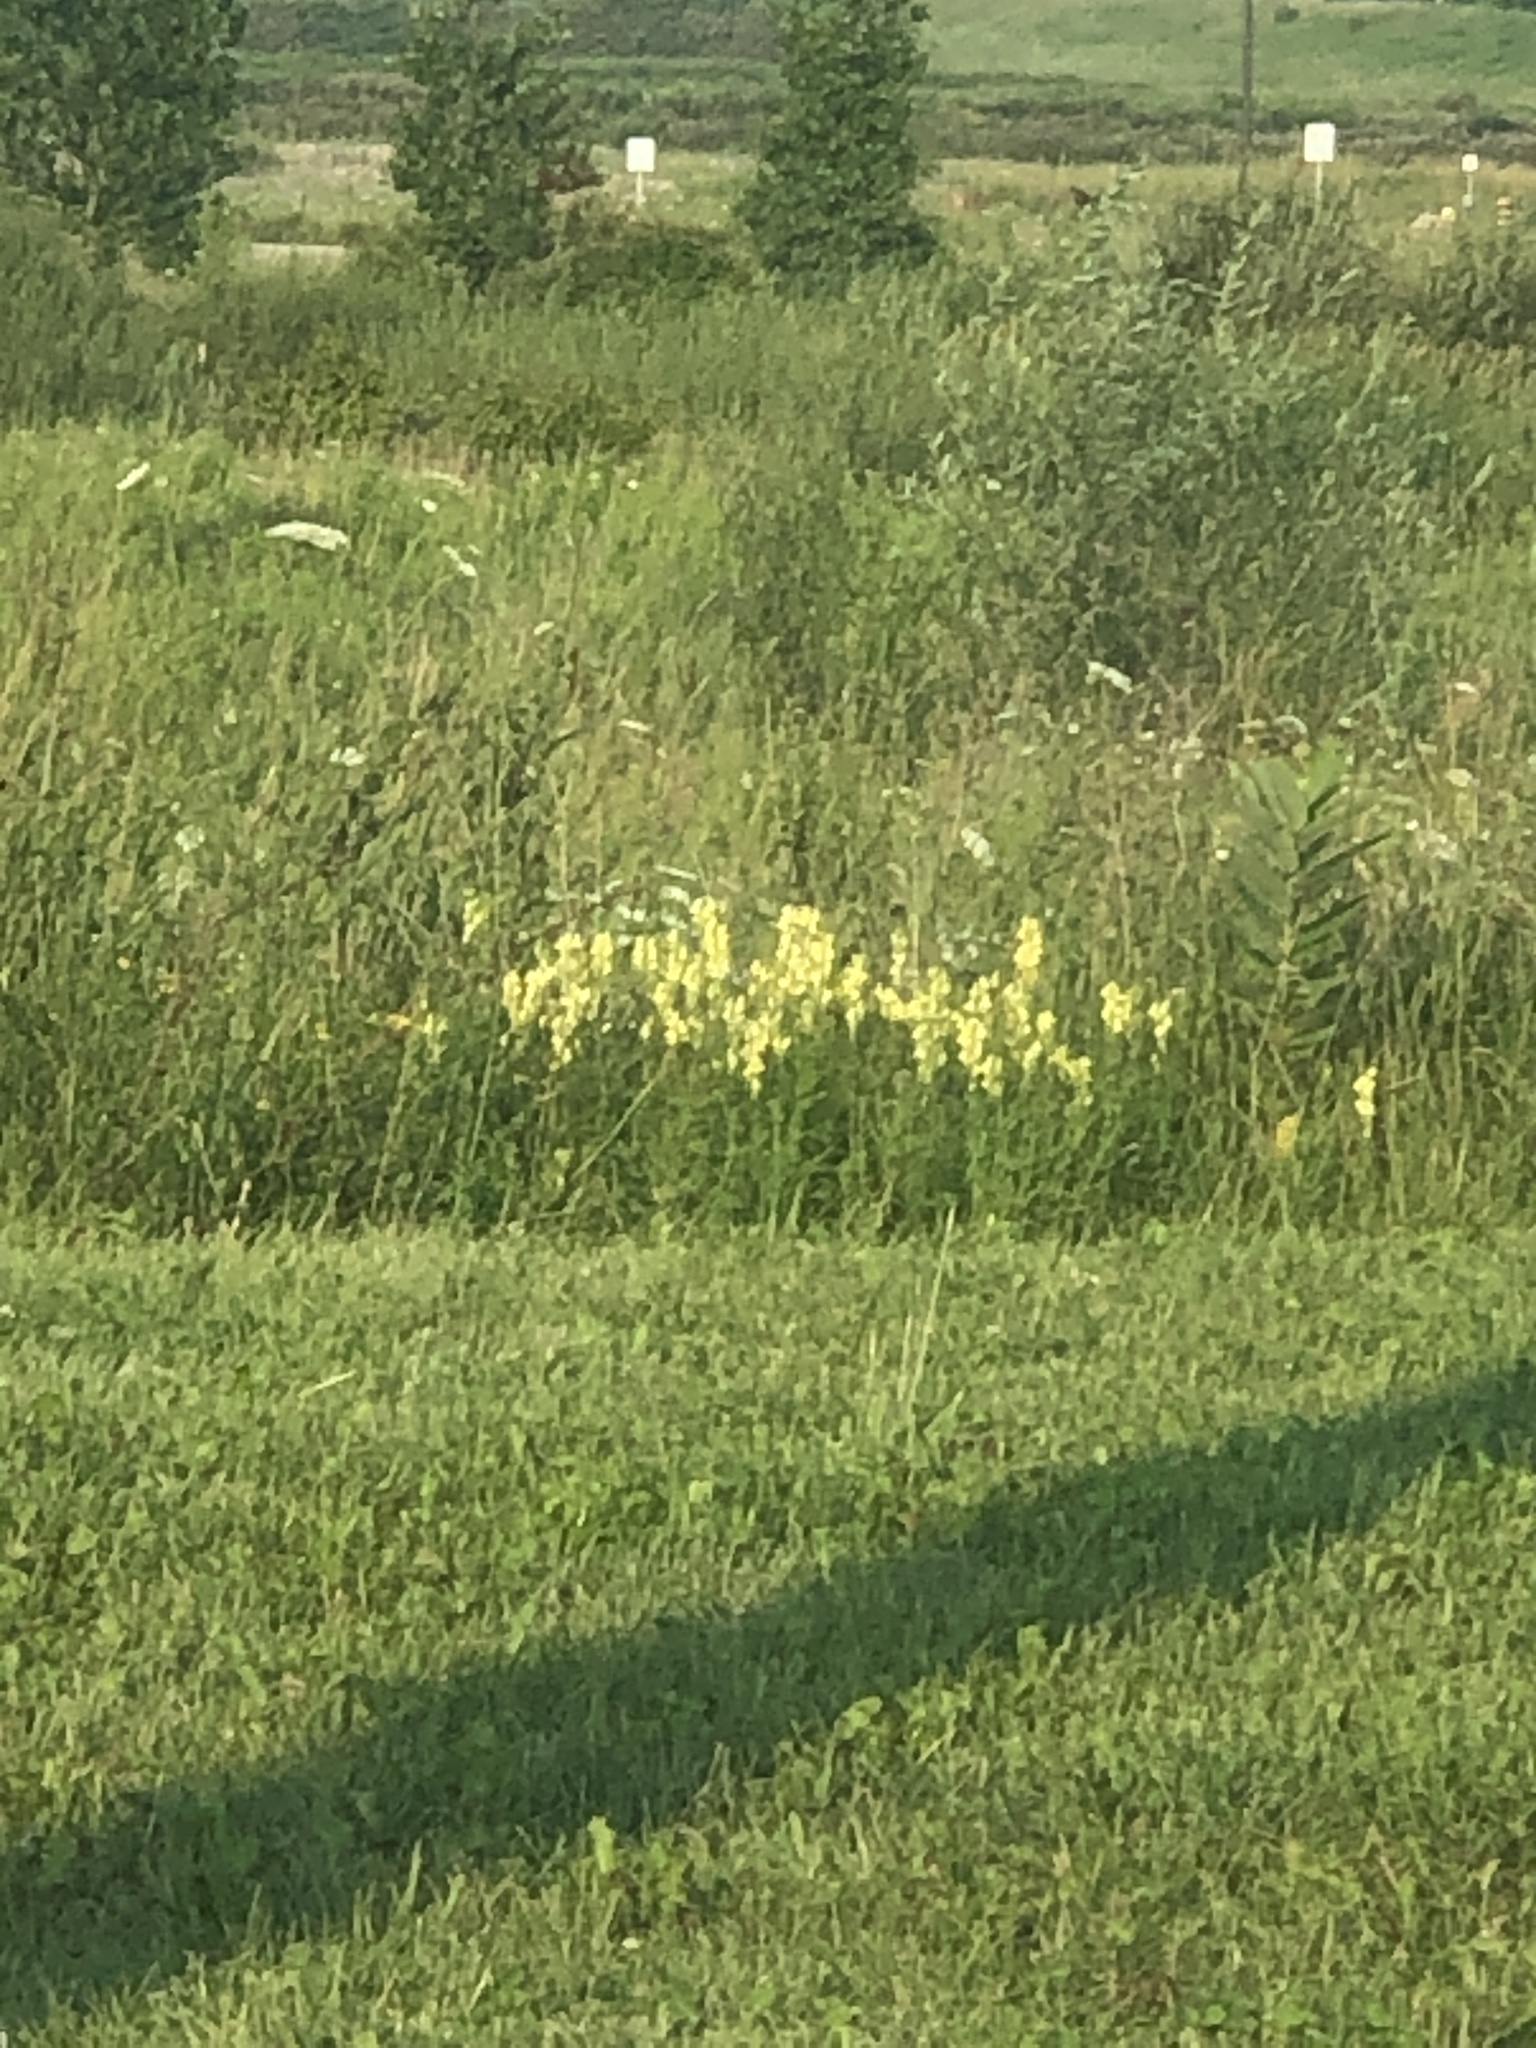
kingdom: Plantae
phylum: Tracheophyta
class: Magnoliopsida
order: Lamiales
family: Plantaginaceae
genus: Linaria
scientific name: Linaria vulgaris
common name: Butter and eggs
